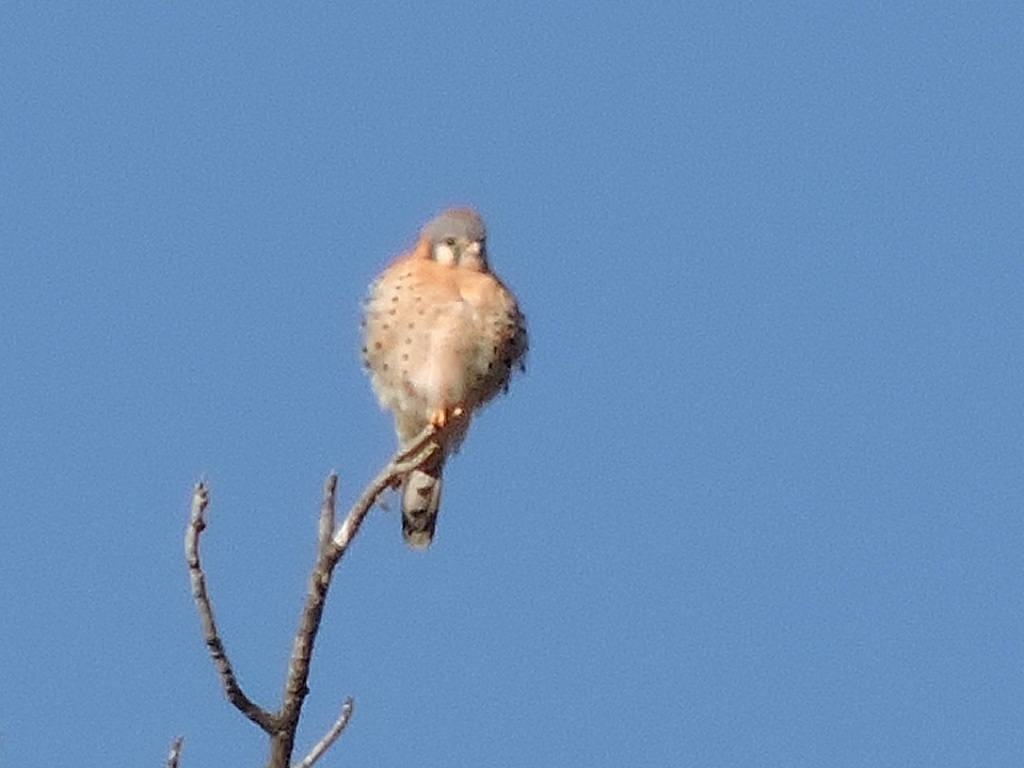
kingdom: Animalia
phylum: Chordata
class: Aves
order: Falconiformes
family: Falconidae
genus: Falco
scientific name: Falco sparverius
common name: American kestrel
